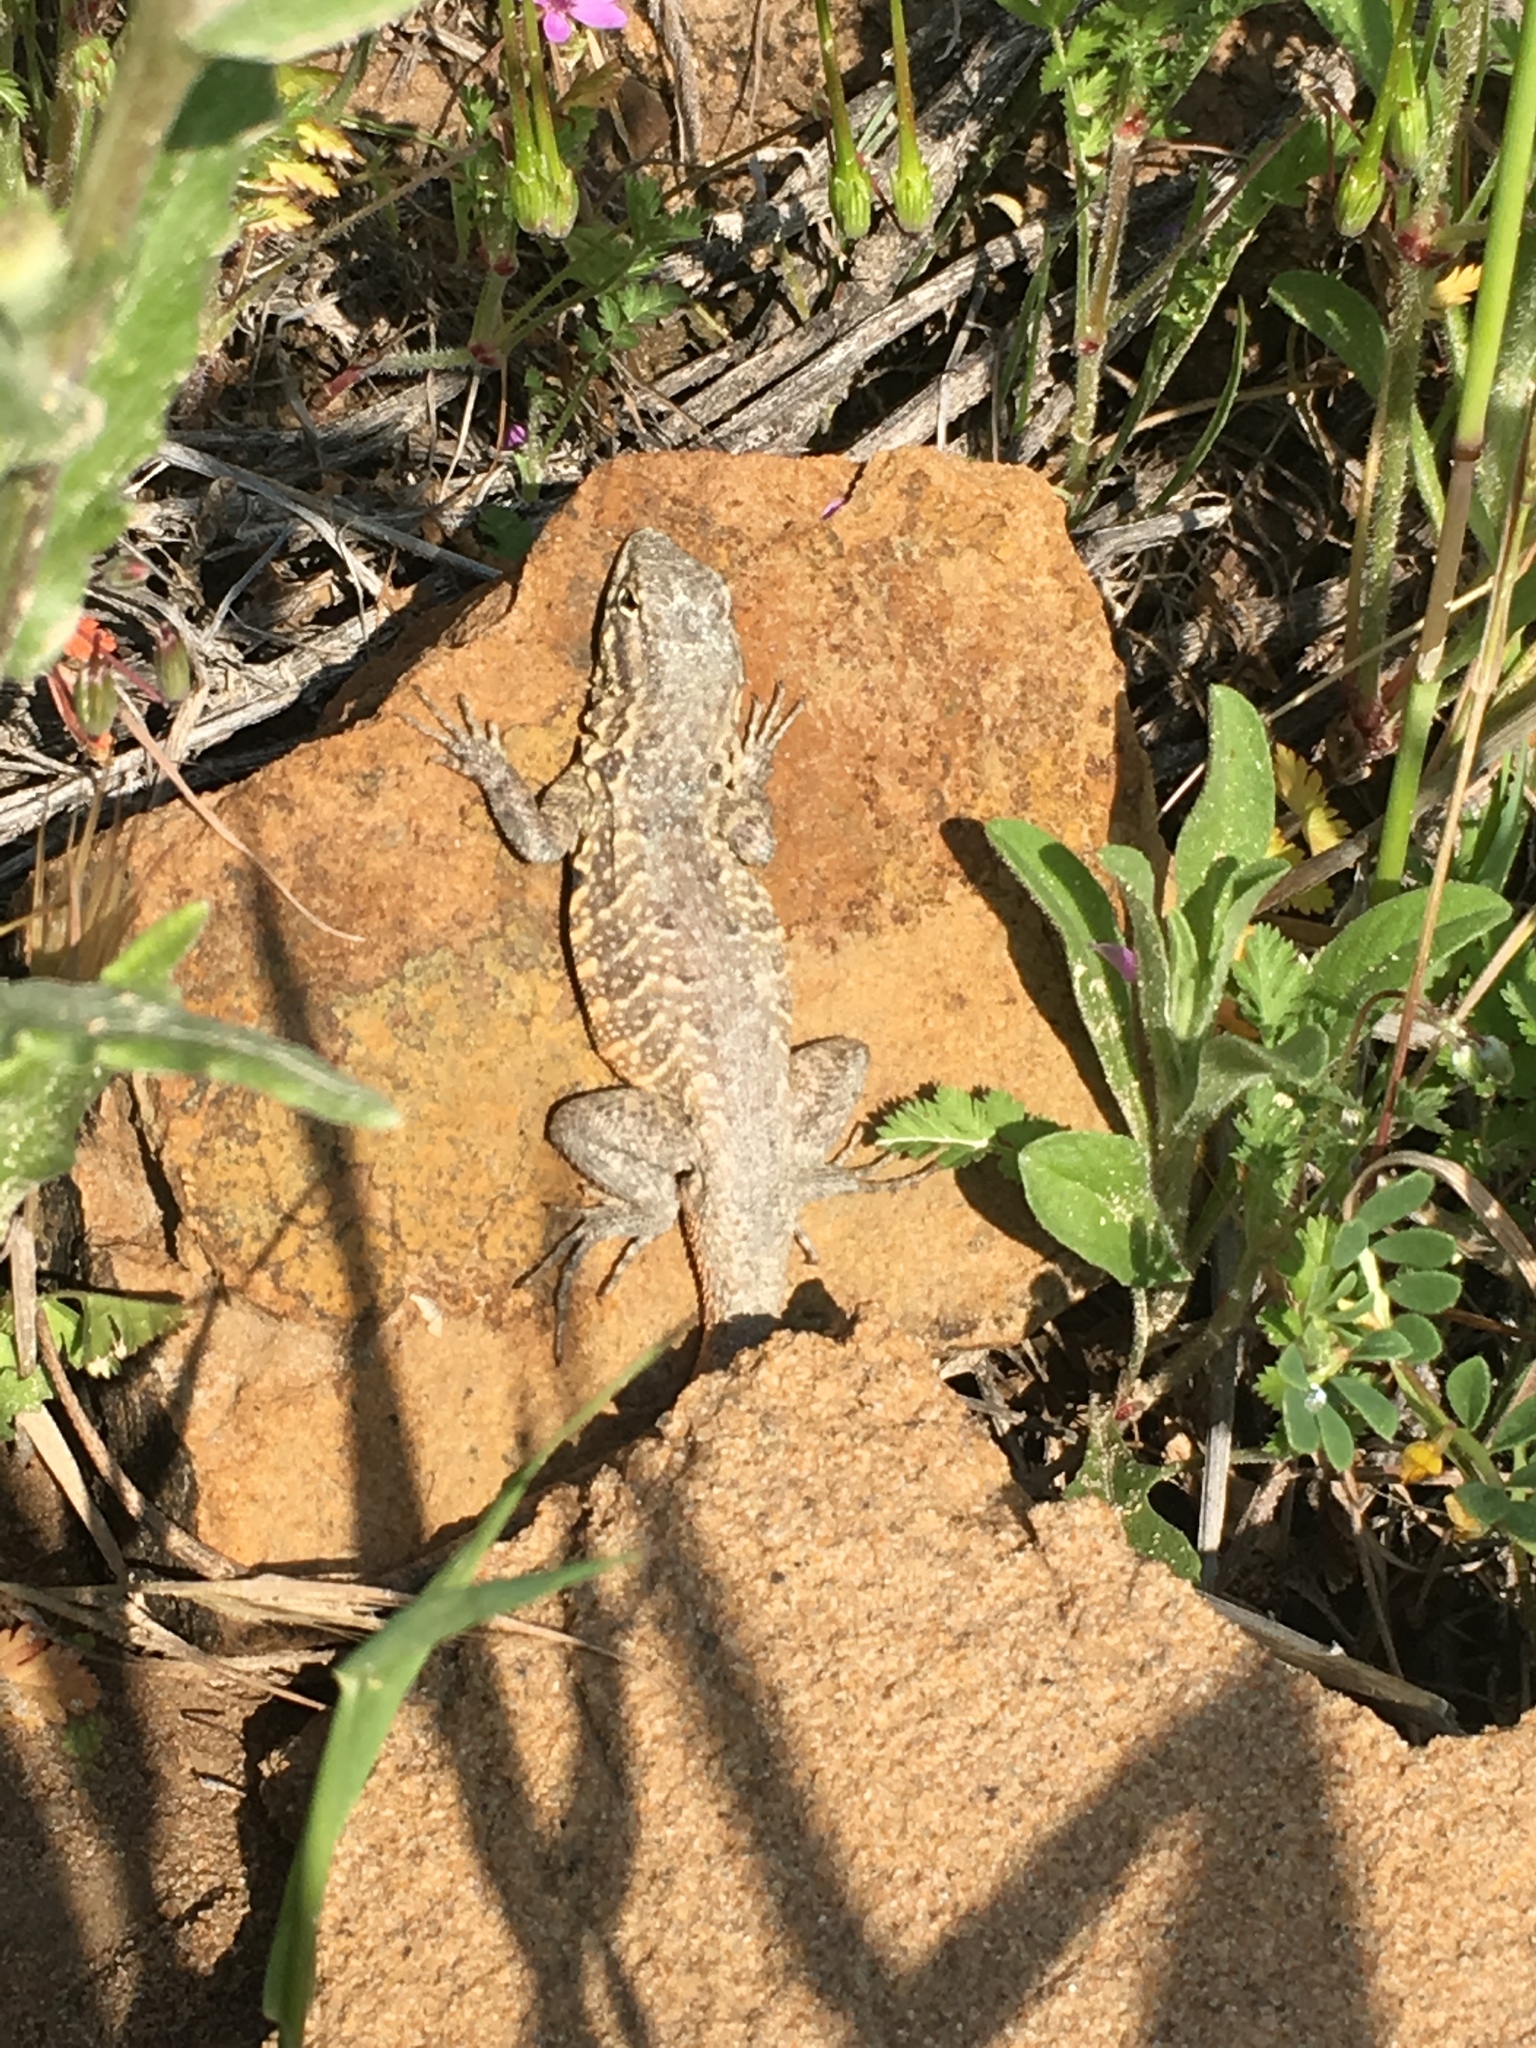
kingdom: Animalia
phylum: Chordata
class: Squamata
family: Phrynosomatidae
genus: Uta
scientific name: Uta stansburiana
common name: Side-blotched lizard
